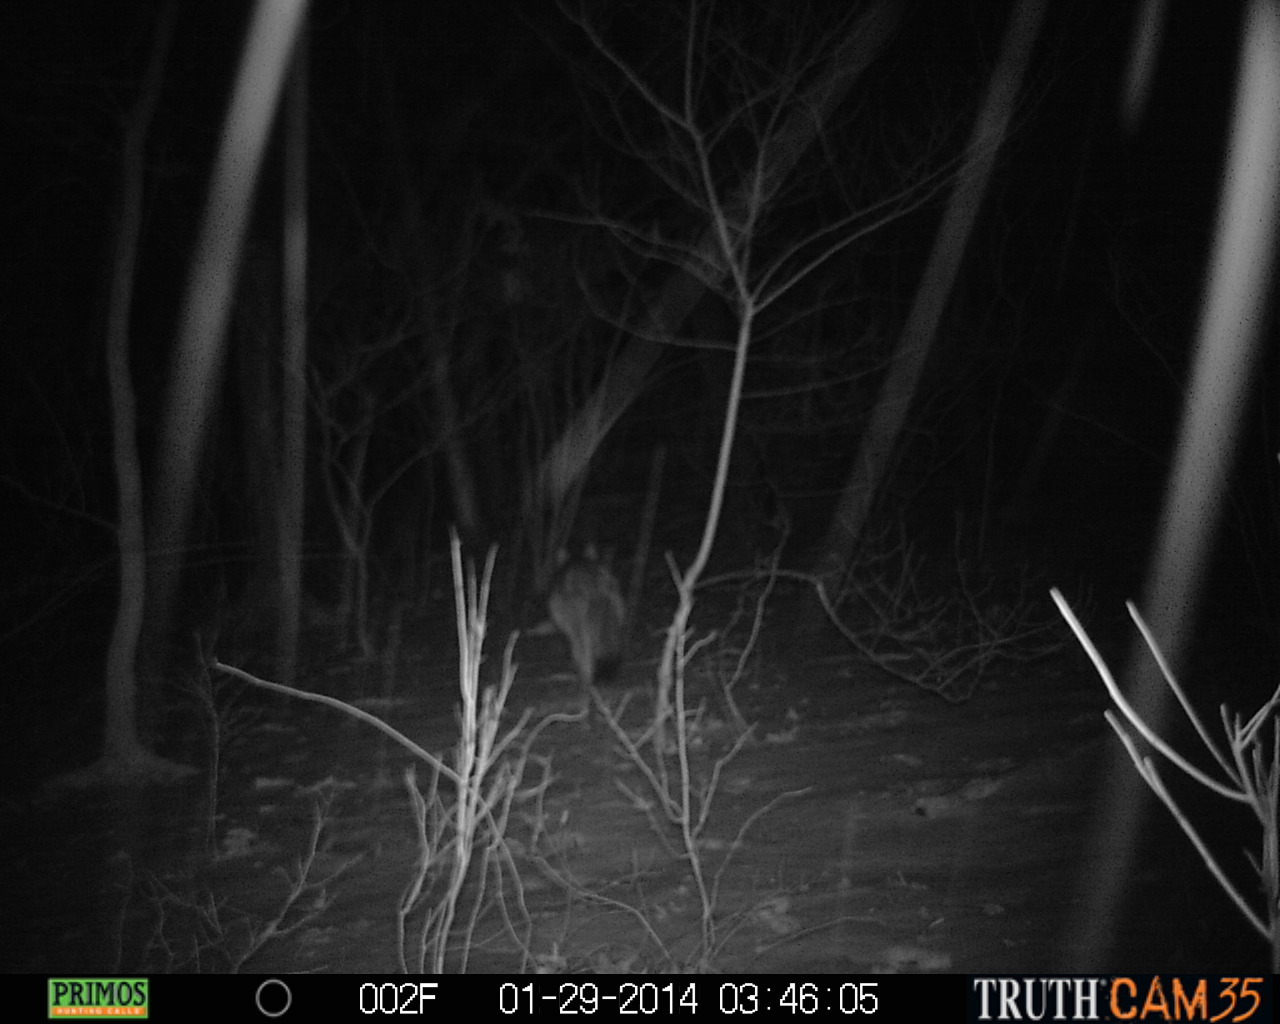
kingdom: Animalia
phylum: Chordata
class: Mammalia
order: Carnivora
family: Canidae
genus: Canis
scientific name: Canis latrans
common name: Coyote
